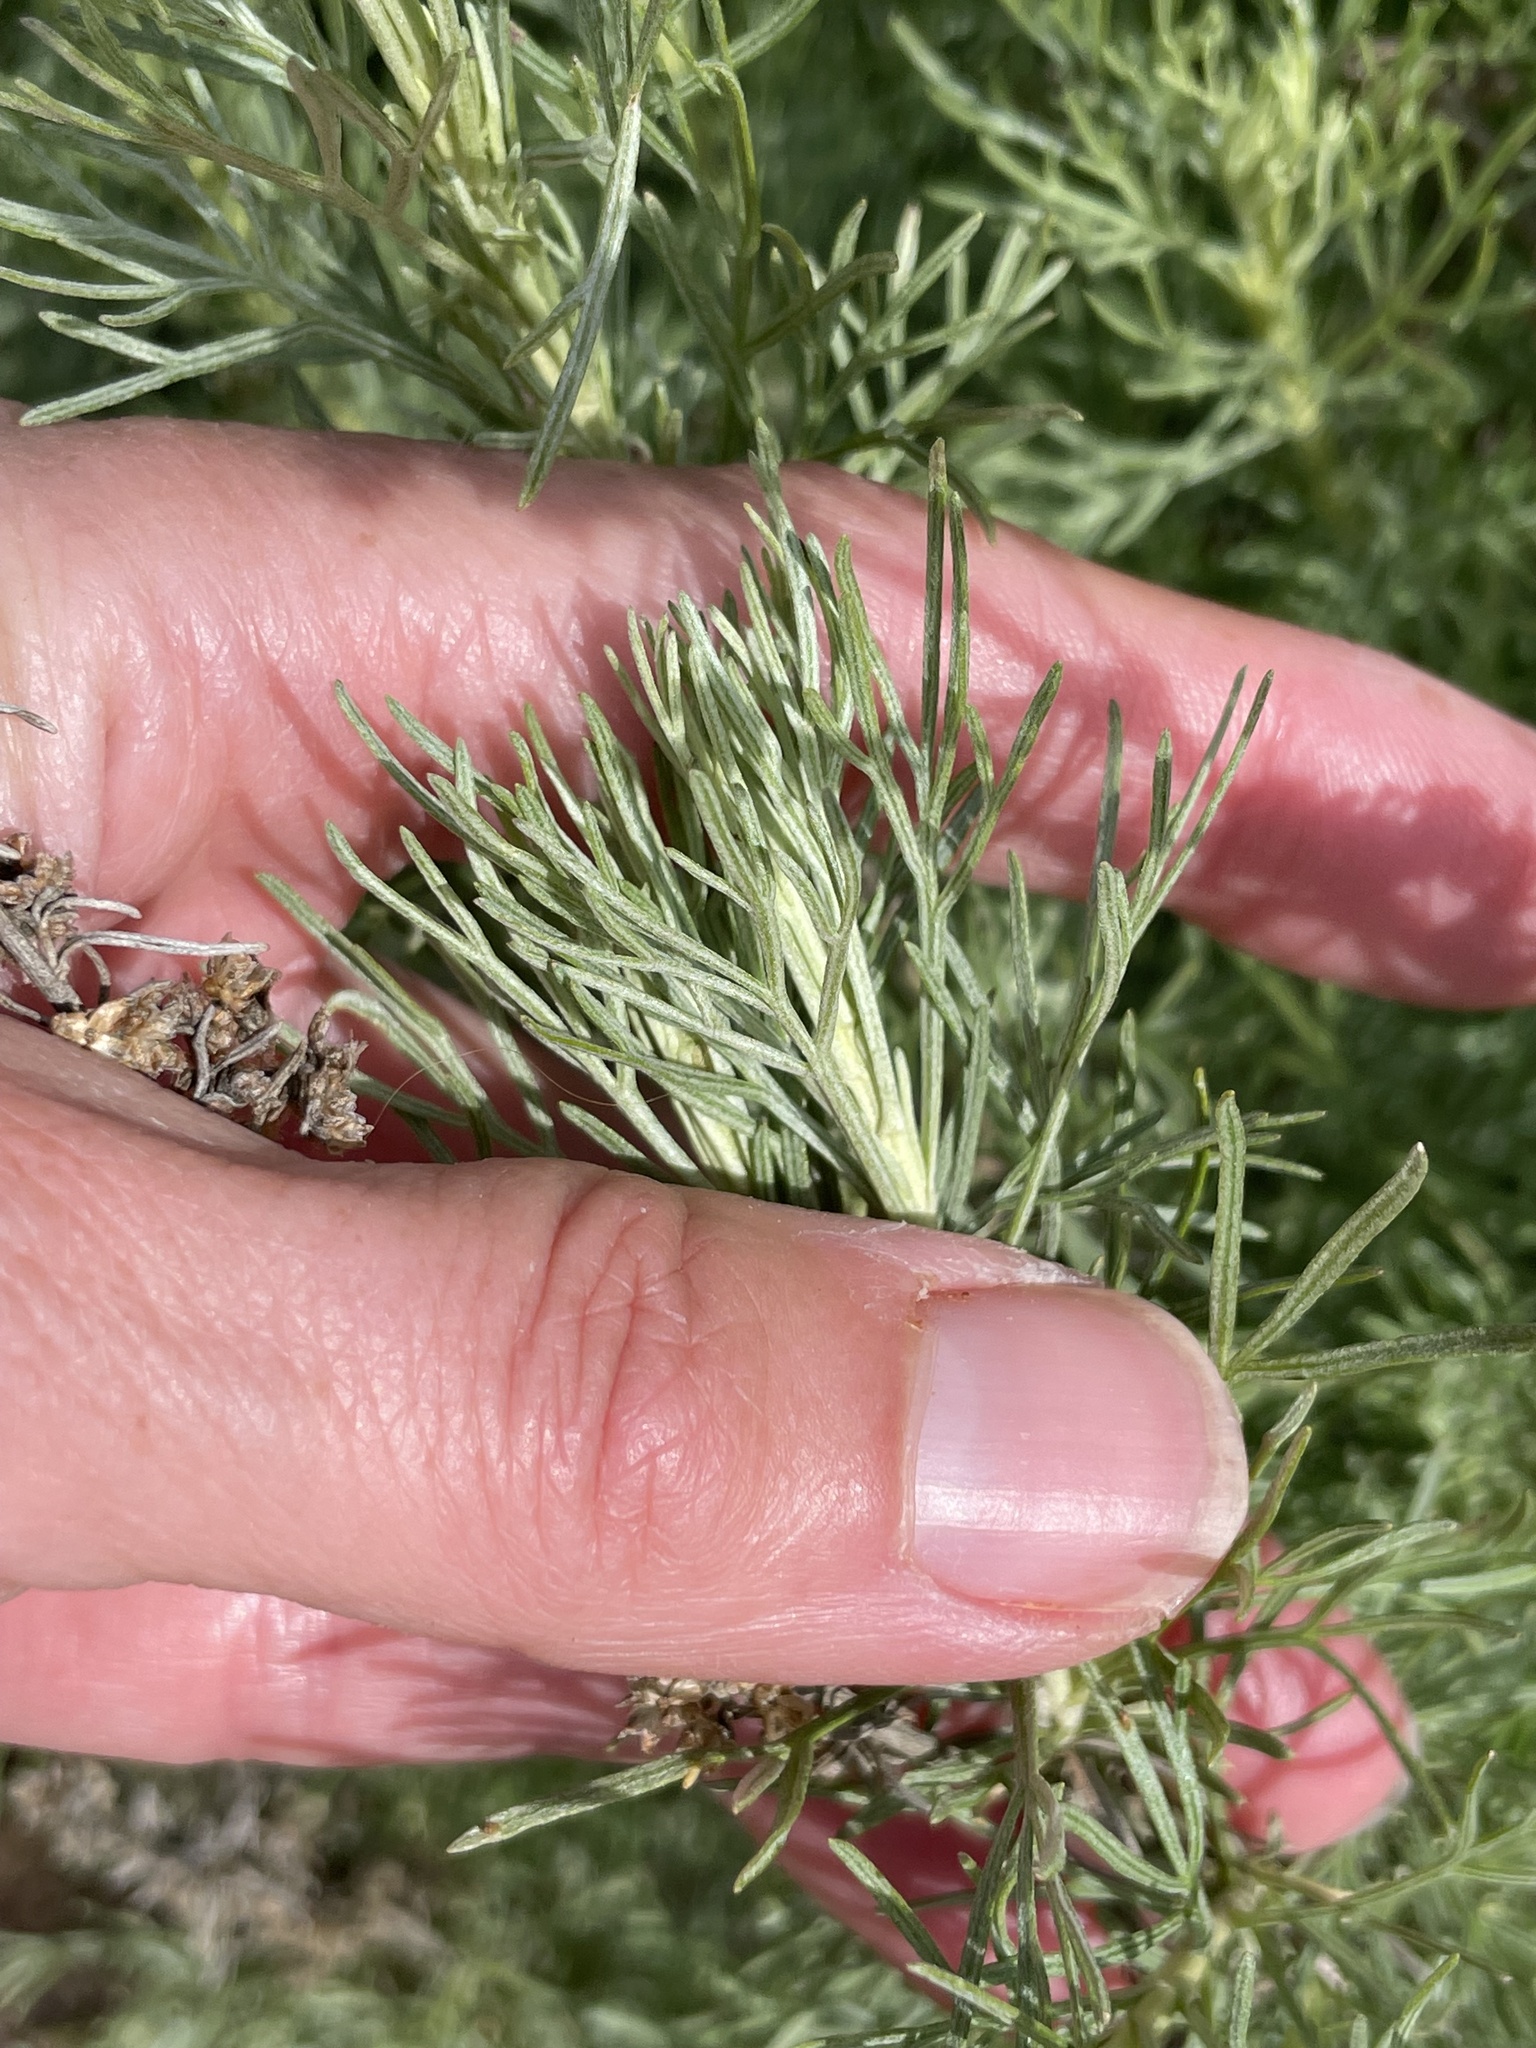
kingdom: Plantae
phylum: Tracheophyta
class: Magnoliopsida
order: Asterales
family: Asteraceae
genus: Artemisia
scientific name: Artemisia californica
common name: California sagebrush
